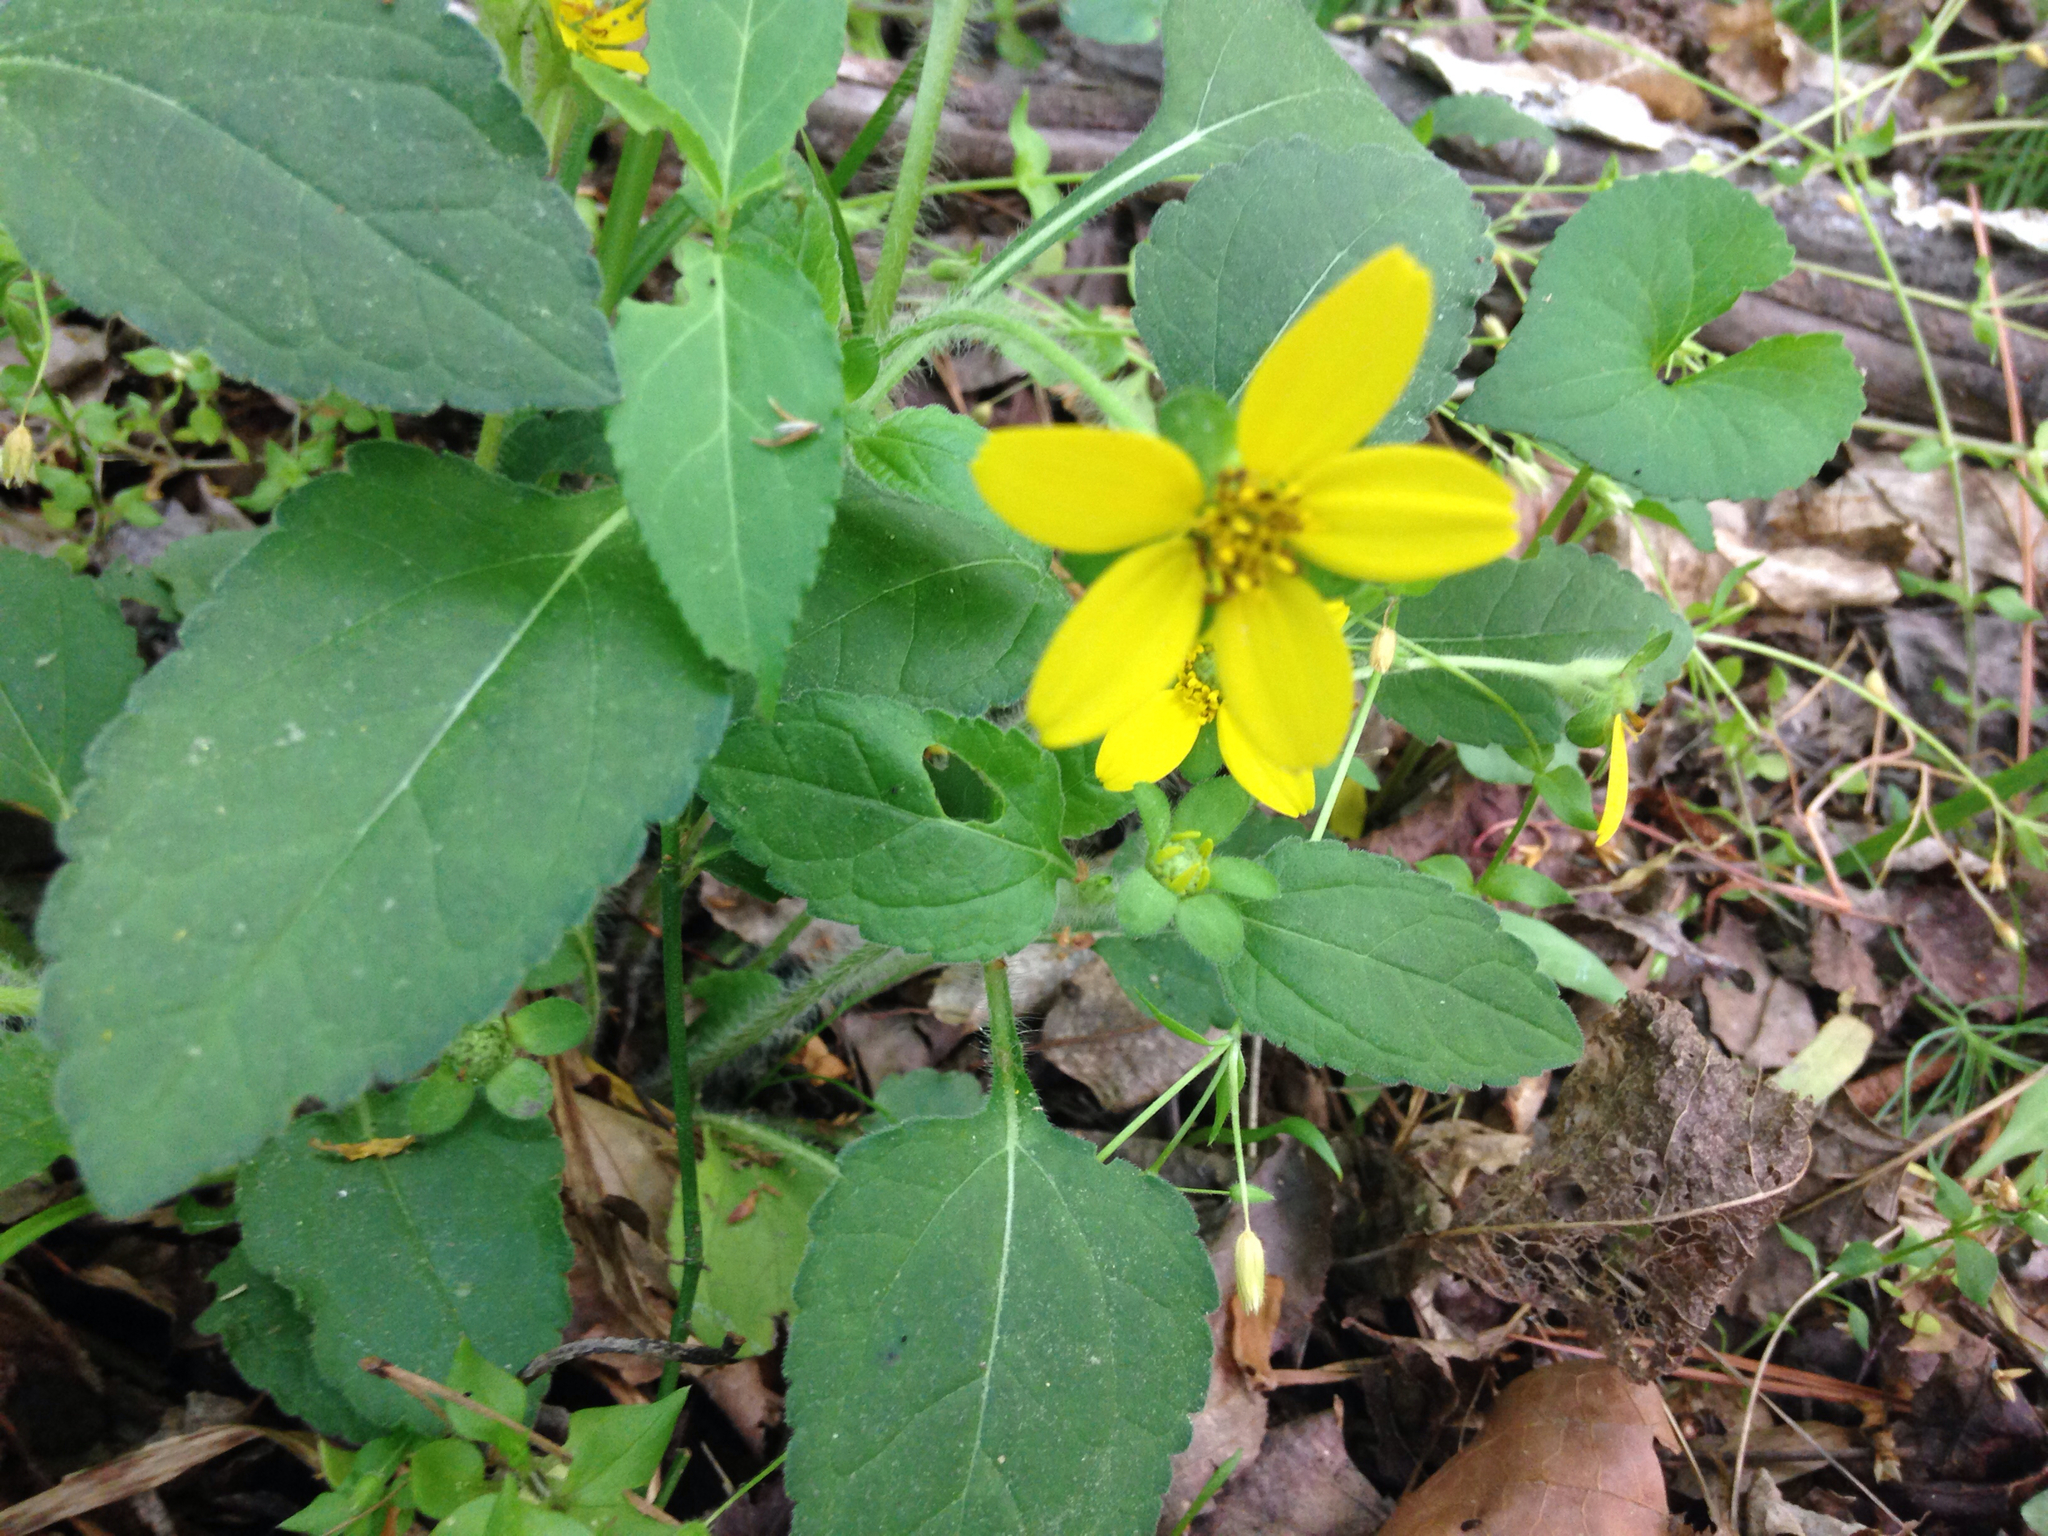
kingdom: Plantae
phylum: Tracheophyta
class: Magnoliopsida
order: Asterales
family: Asteraceae
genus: Chrysogonum
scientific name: Chrysogonum virginianum
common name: Golden-knee
